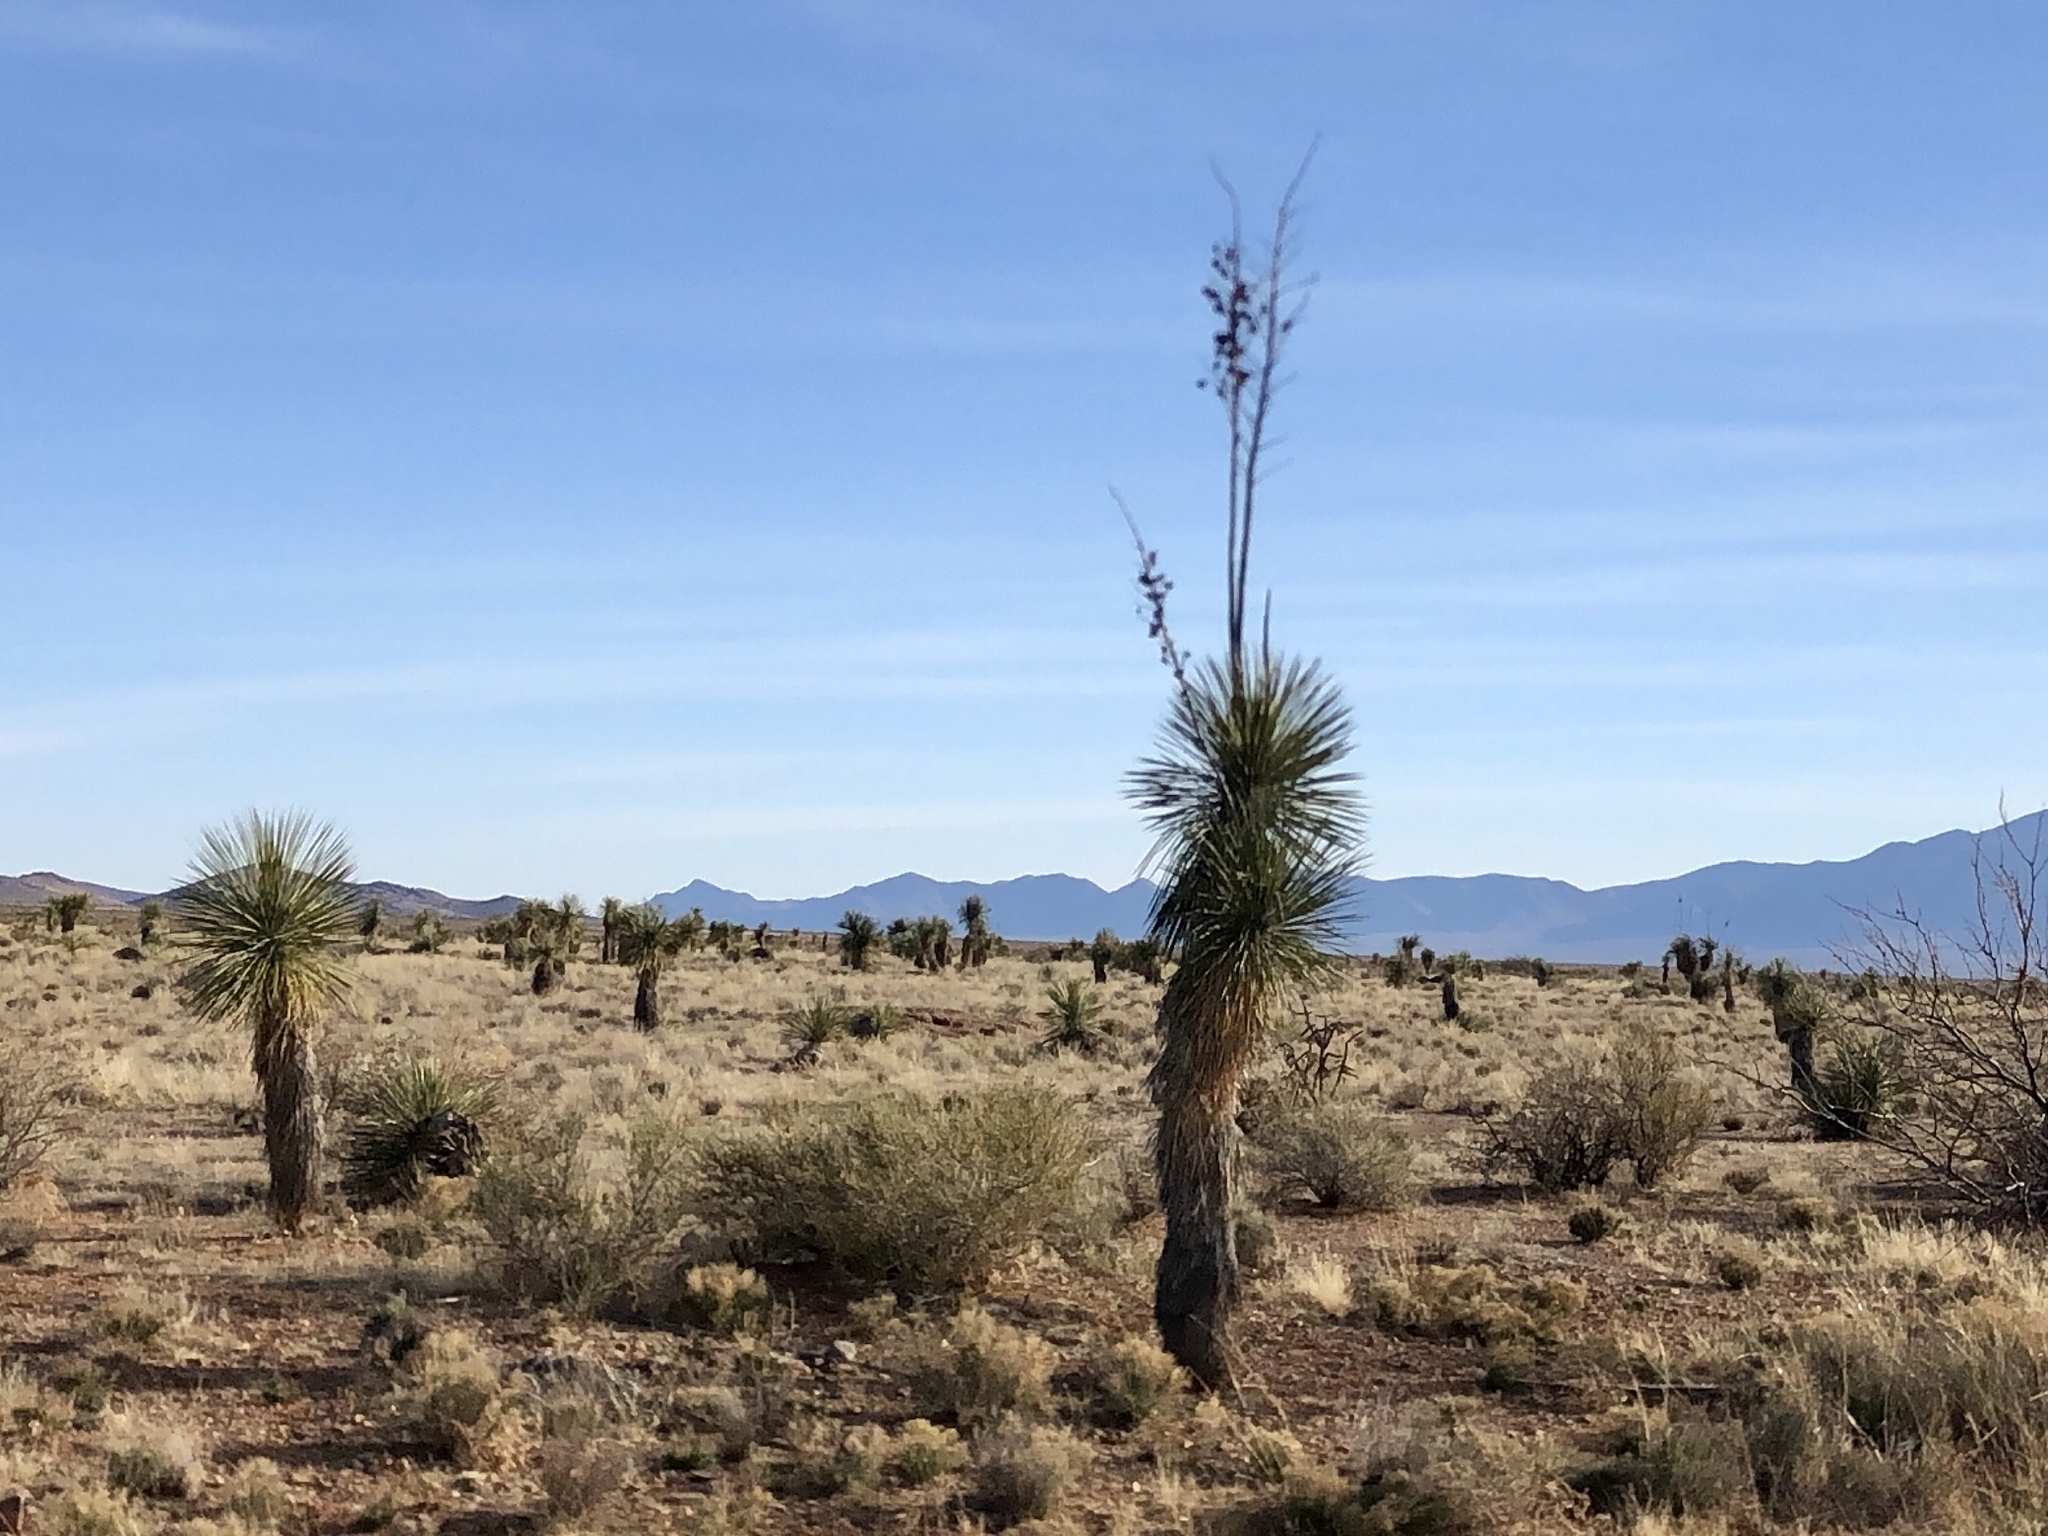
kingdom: Plantae
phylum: Tracheophyta
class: Liliopsida
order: Asparagales
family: Asparagaceae
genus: Yucca
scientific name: Yucca elata
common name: Palmella
